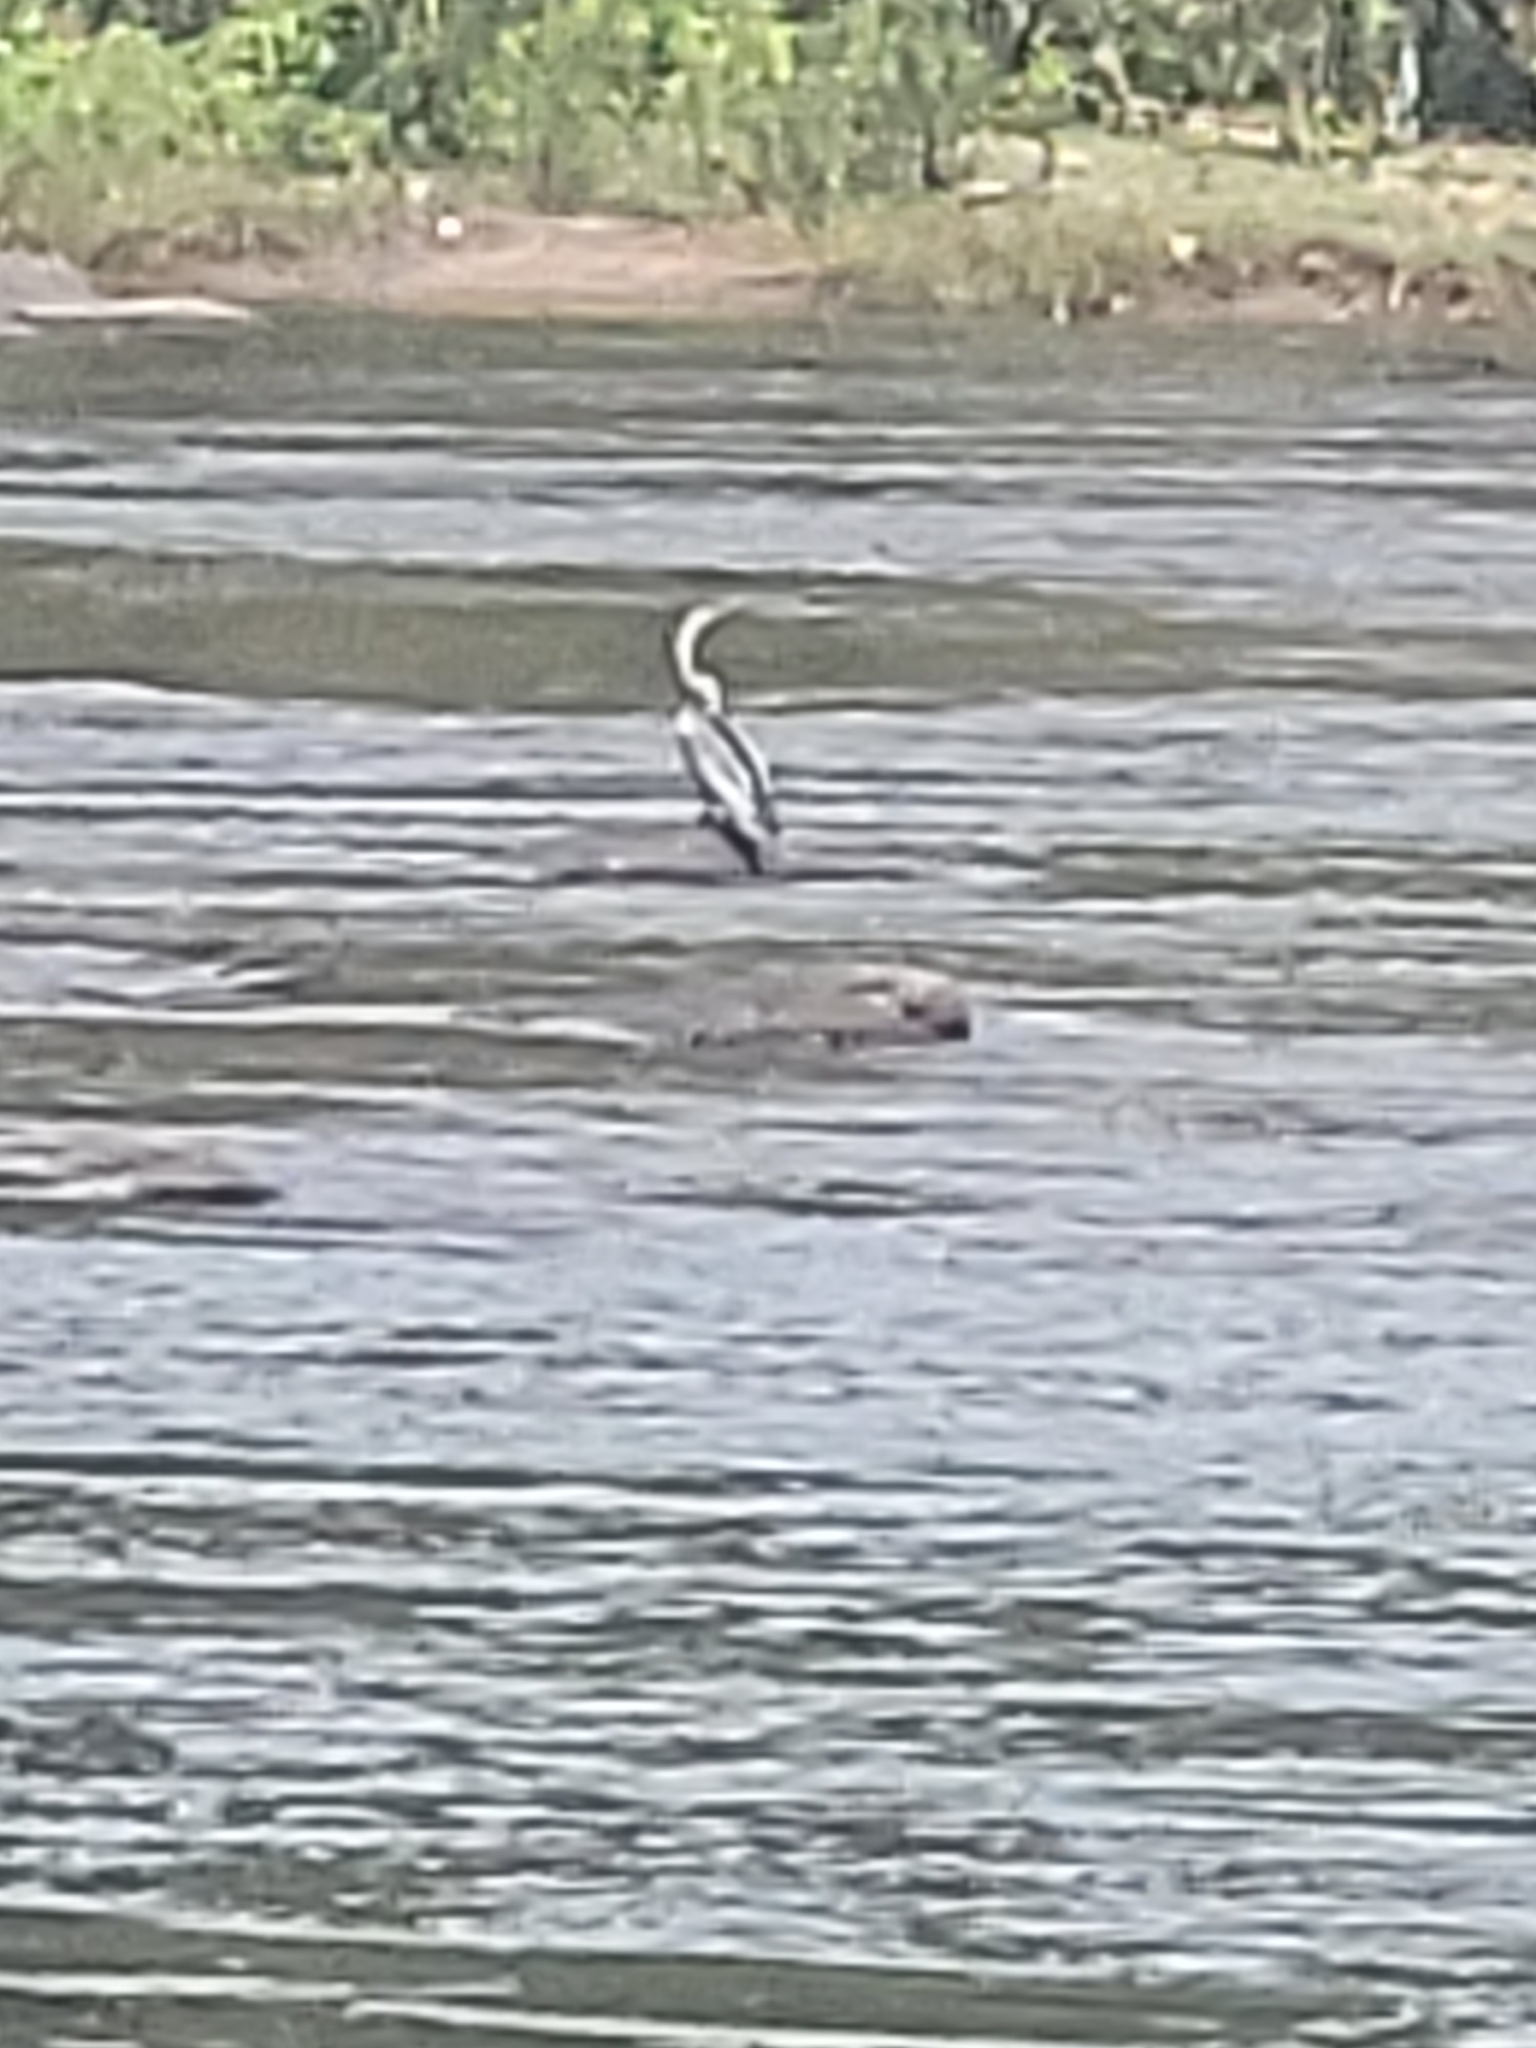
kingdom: Animalia
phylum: Chordata
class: Aves
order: Suliformes
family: Anhingidae
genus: Anhinga
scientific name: Anhinga melanogaster
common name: Oriental darter
